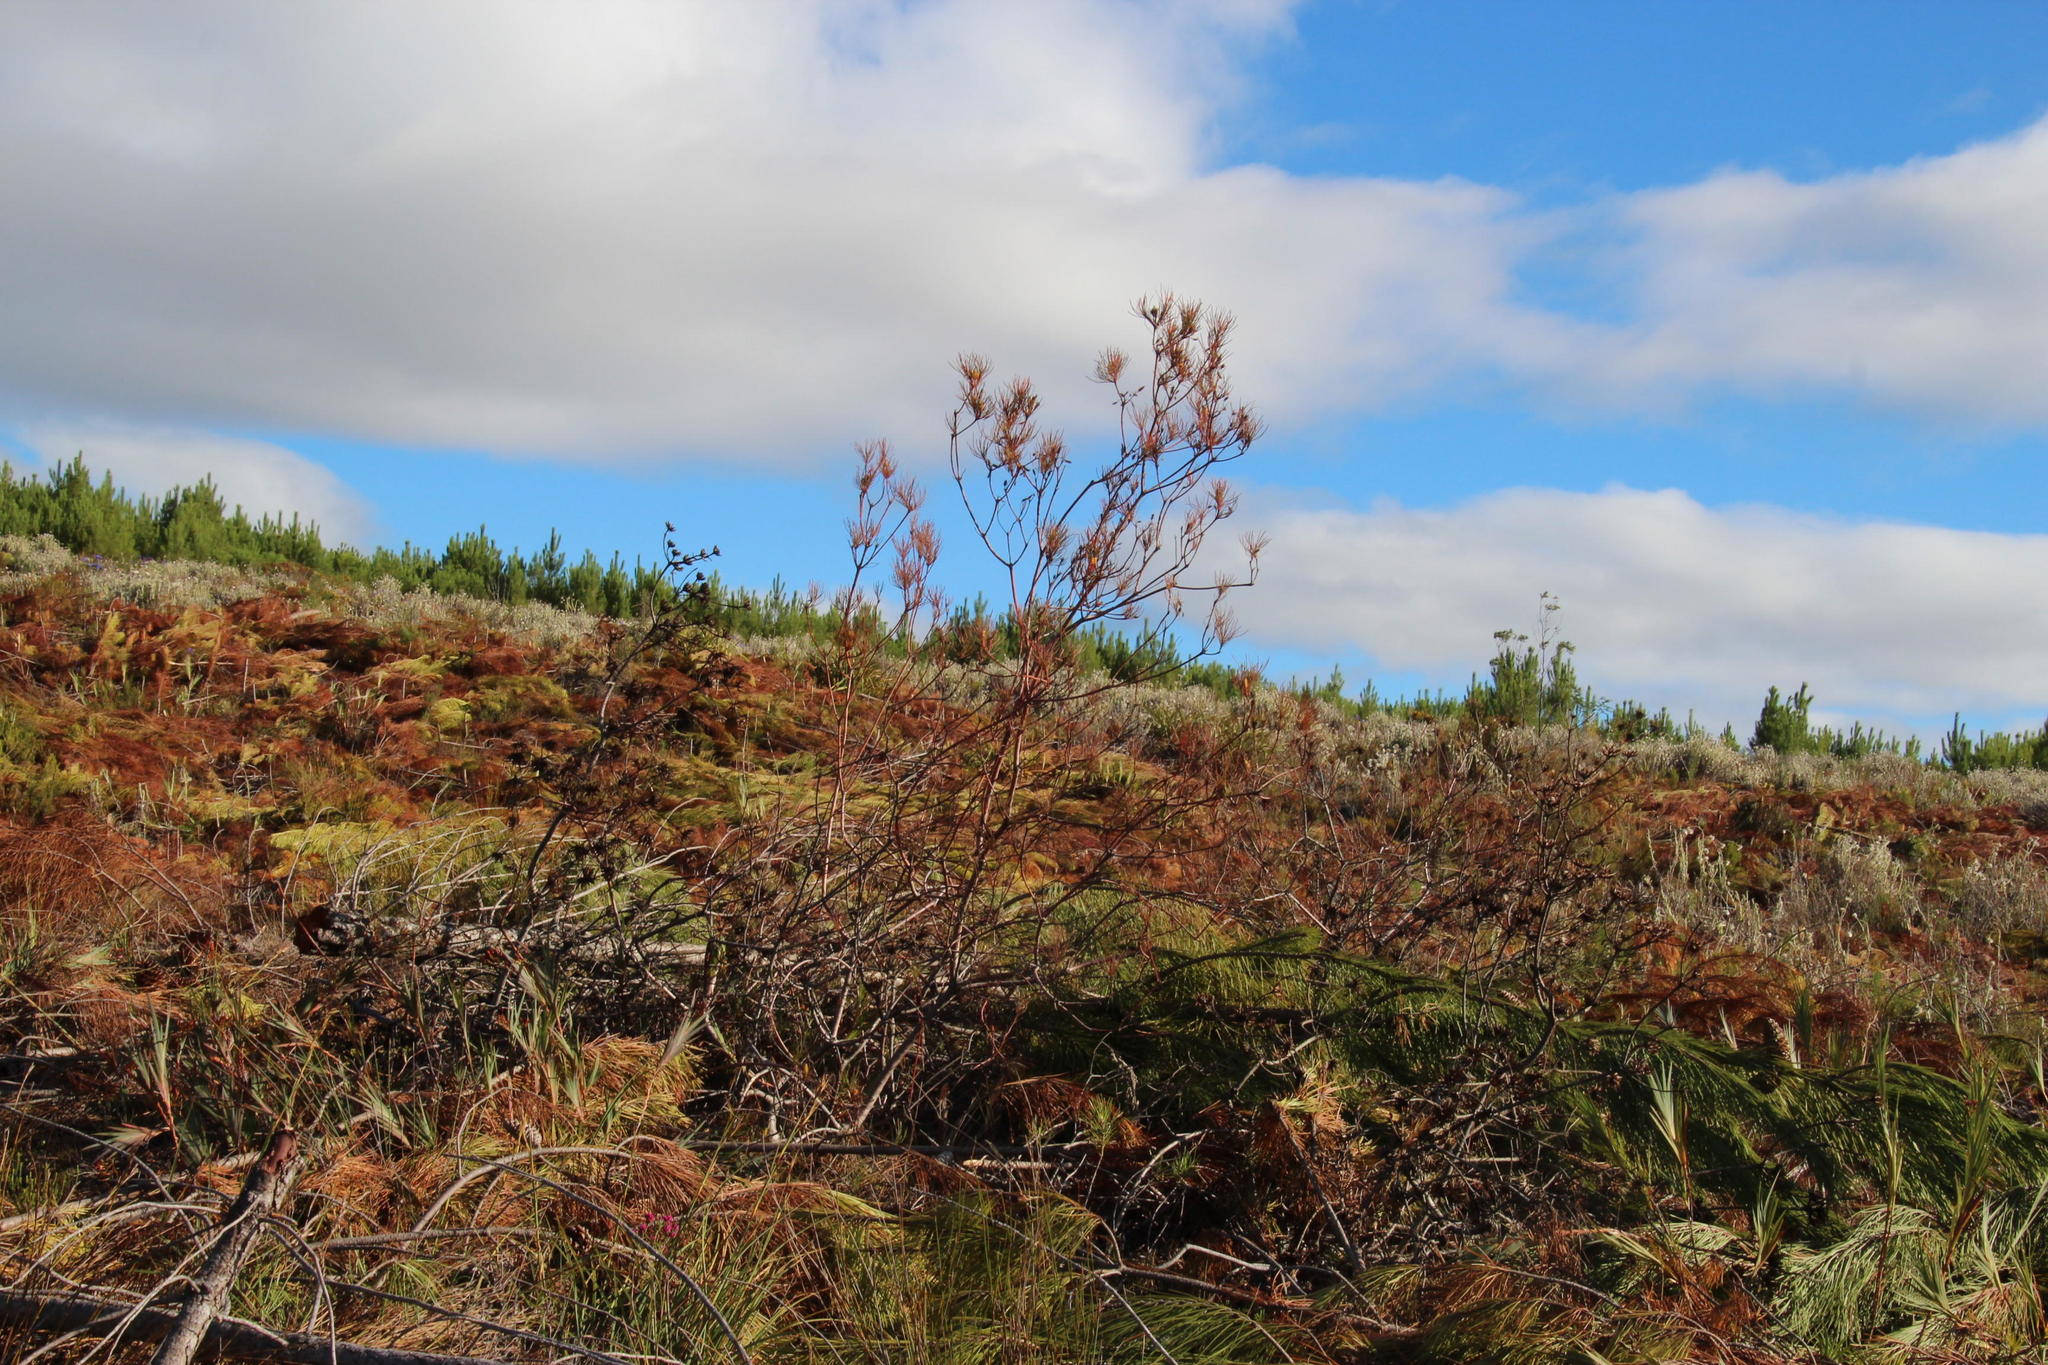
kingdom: Plantae
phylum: Tracheophyta
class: Magnoliopsida
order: Proteales
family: Proteaceae
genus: Aulax
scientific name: Aulax cancellata
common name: Channel-leaf featherbush
